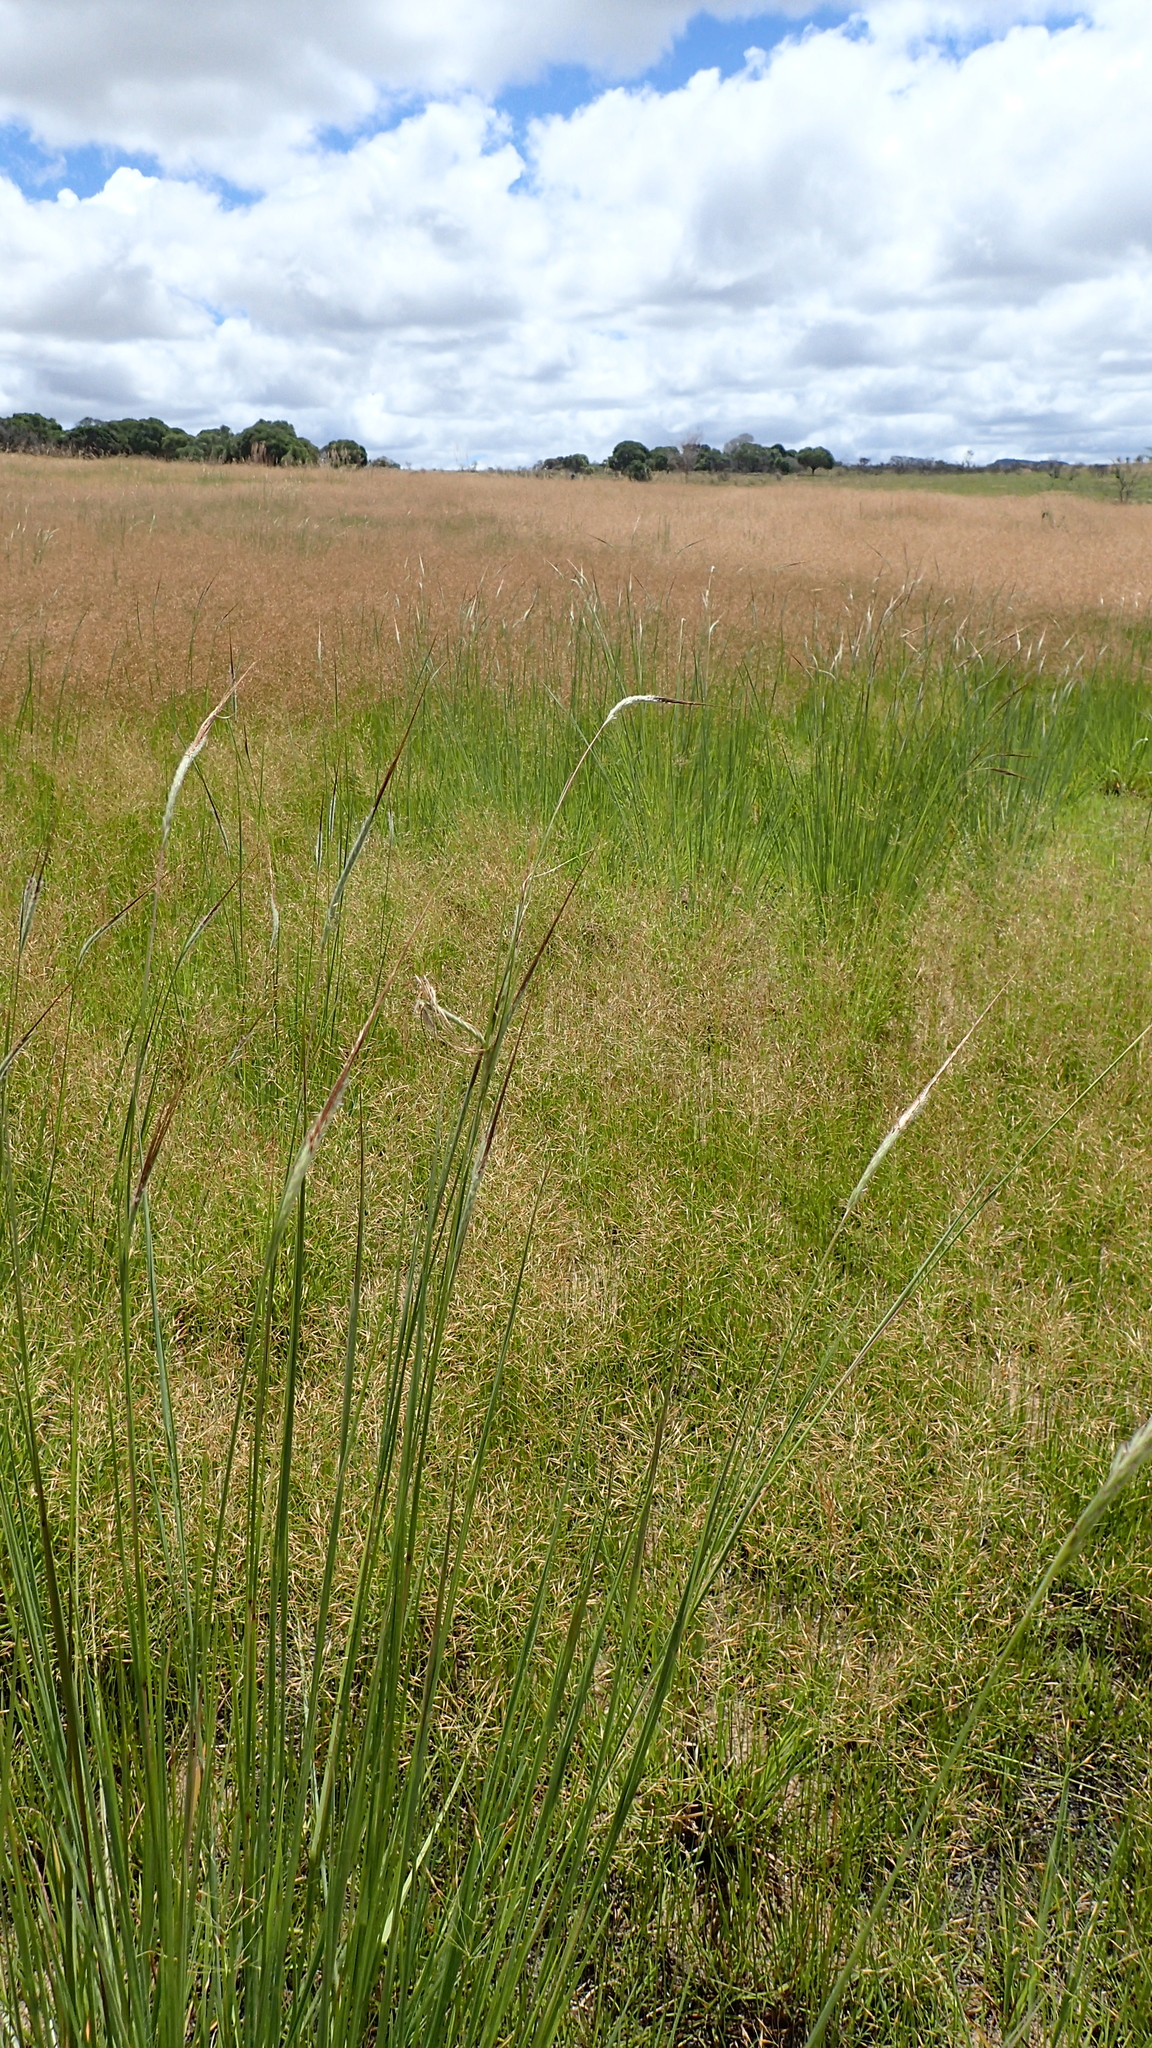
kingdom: Plantae
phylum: Tracheophyta
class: Liliopsida
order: Poales
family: Poaceae
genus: Heteropogon
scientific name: Heteropogon contortus
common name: Tanglehead
